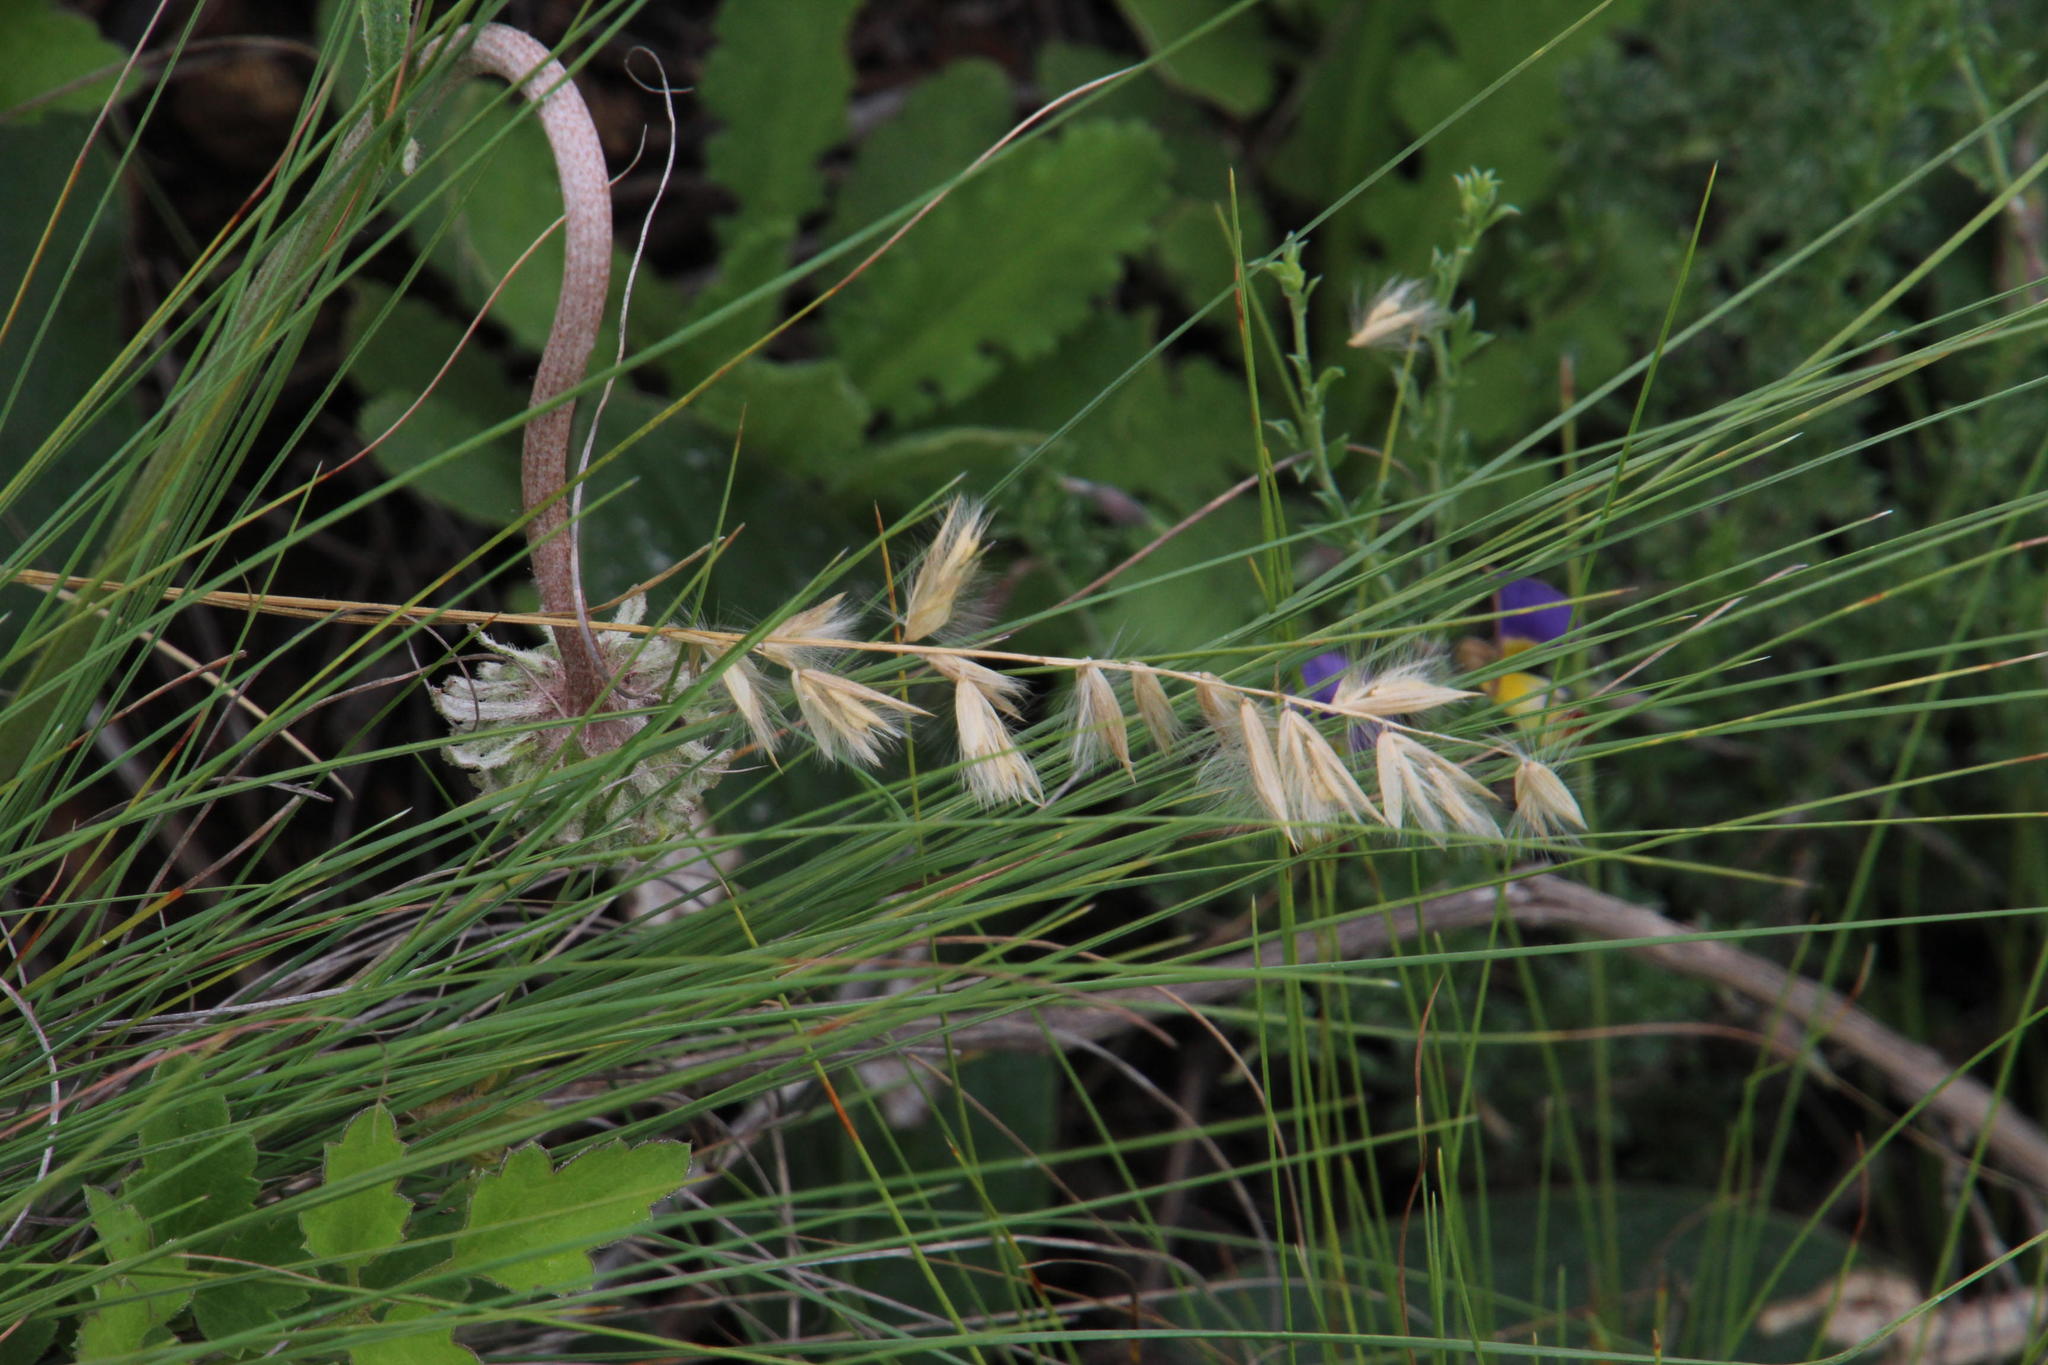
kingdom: Plantae
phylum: Tracheophyta
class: Liliopsida
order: Poales
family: Poaceae
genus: Melica
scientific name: Melica racemosa
